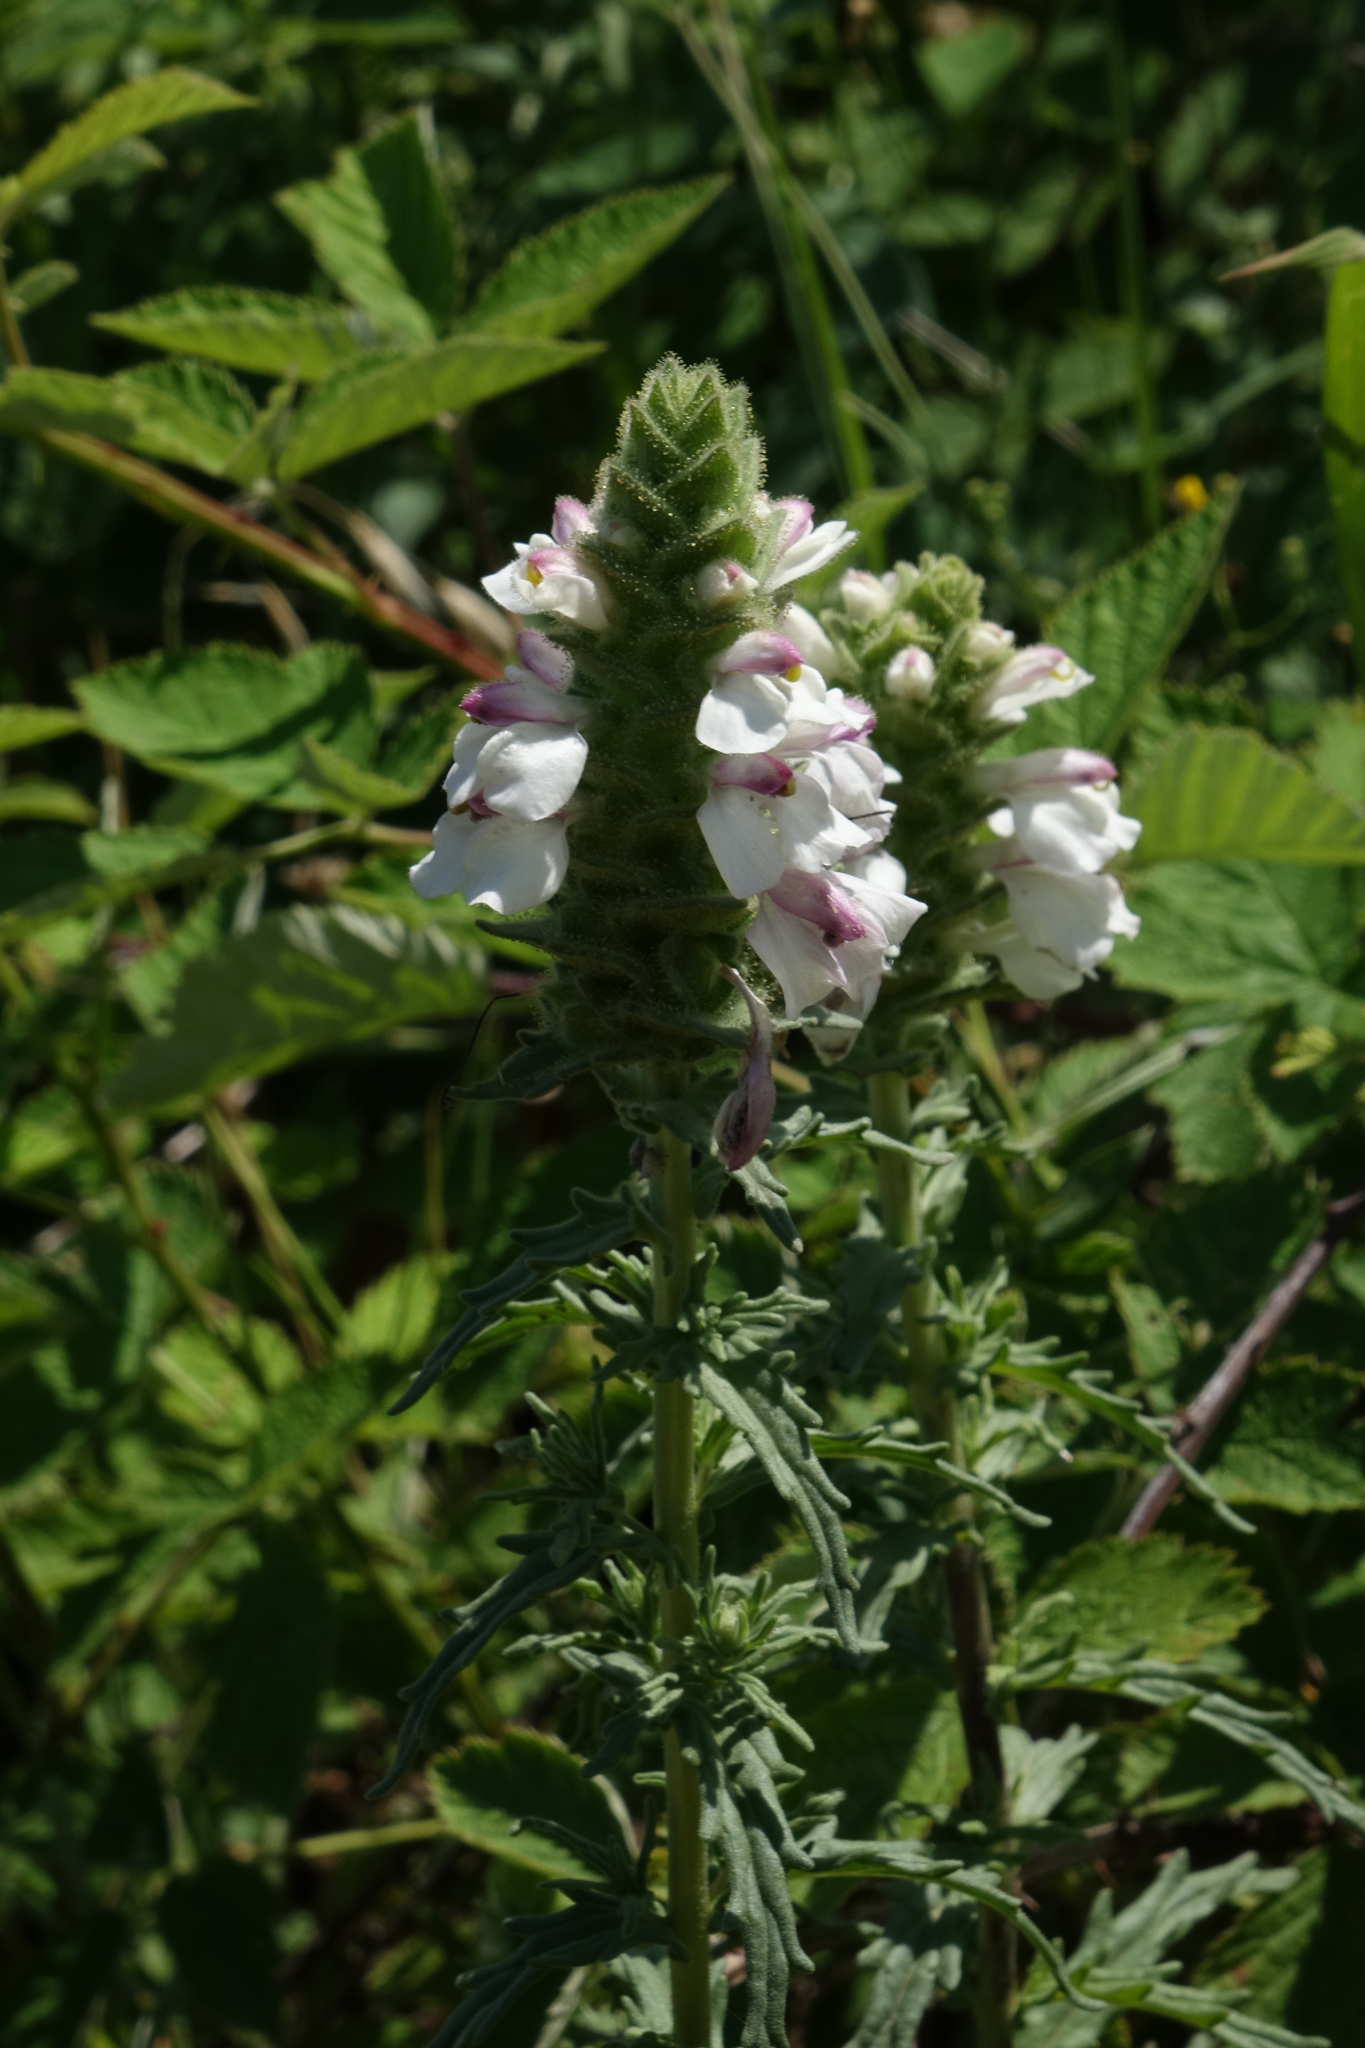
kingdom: Plantae
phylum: Tracheophyta
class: Magnoliopsida
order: Lamiales
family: Orobanchaceae
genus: Bellardia
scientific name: Bellardia trixago
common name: Mediterranean lineseed
